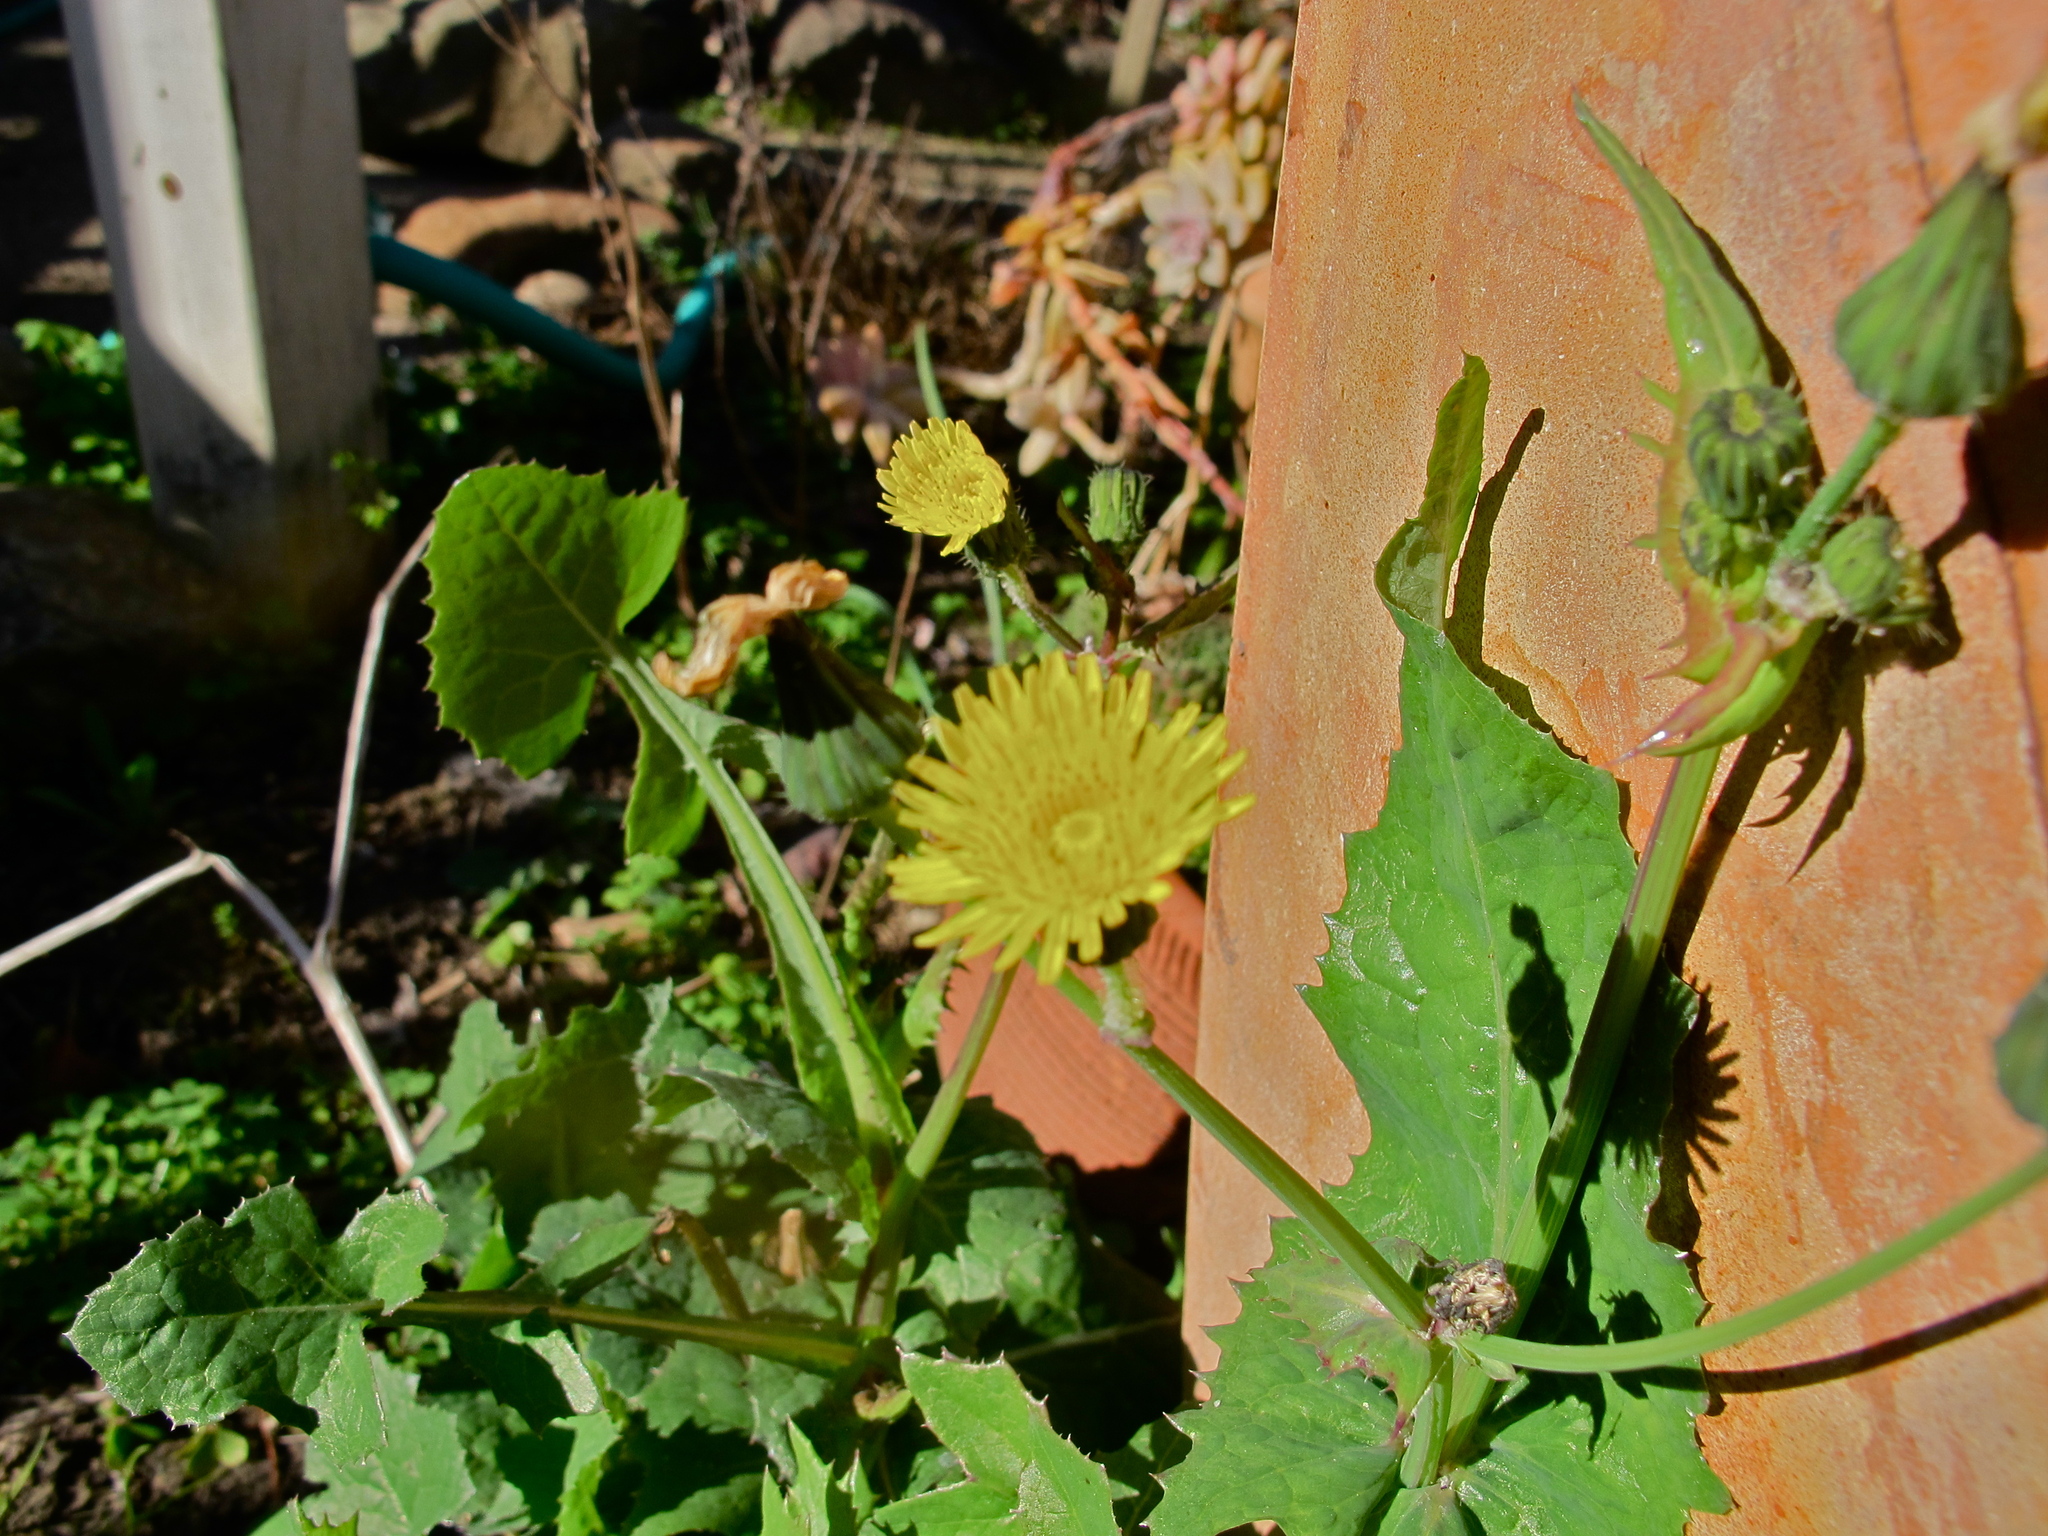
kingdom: Plantae
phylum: Tracheophyta
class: Magnoliopsida
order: Asterales
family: Asteraceae
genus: Sonchus
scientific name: Sonchus oleraceus
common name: Common sowthistle
